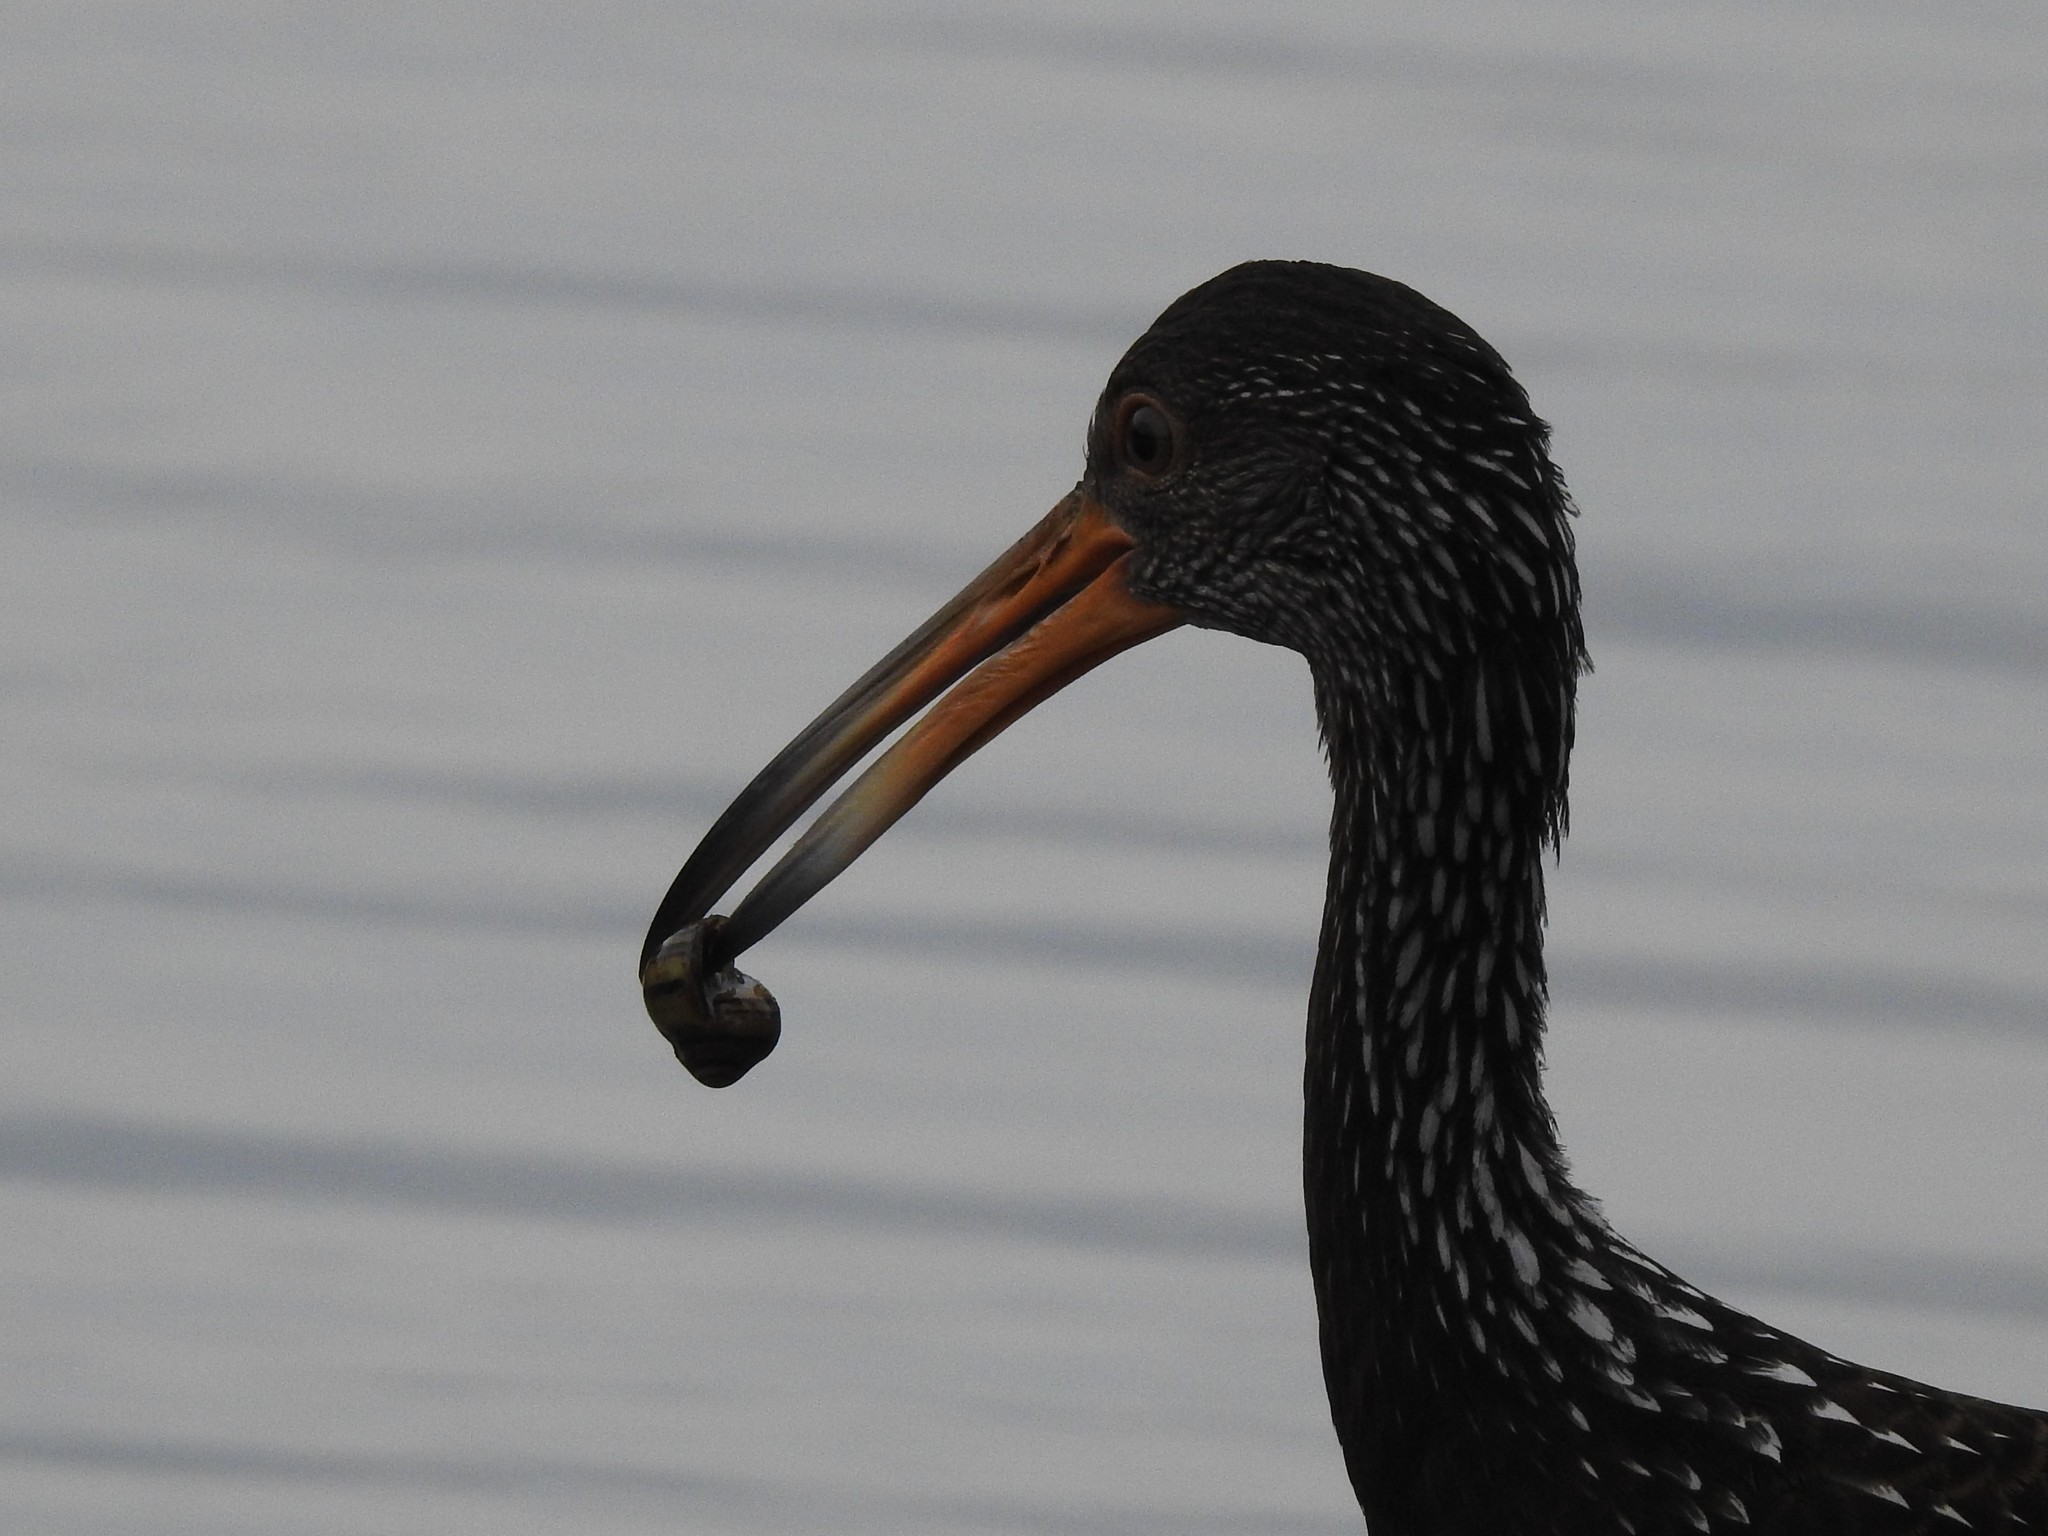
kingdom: Animalia
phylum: Chordata
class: Aves
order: Gruiformes
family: Aramidae
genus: Aramus
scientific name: Aramus guarauna
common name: Limpkin
